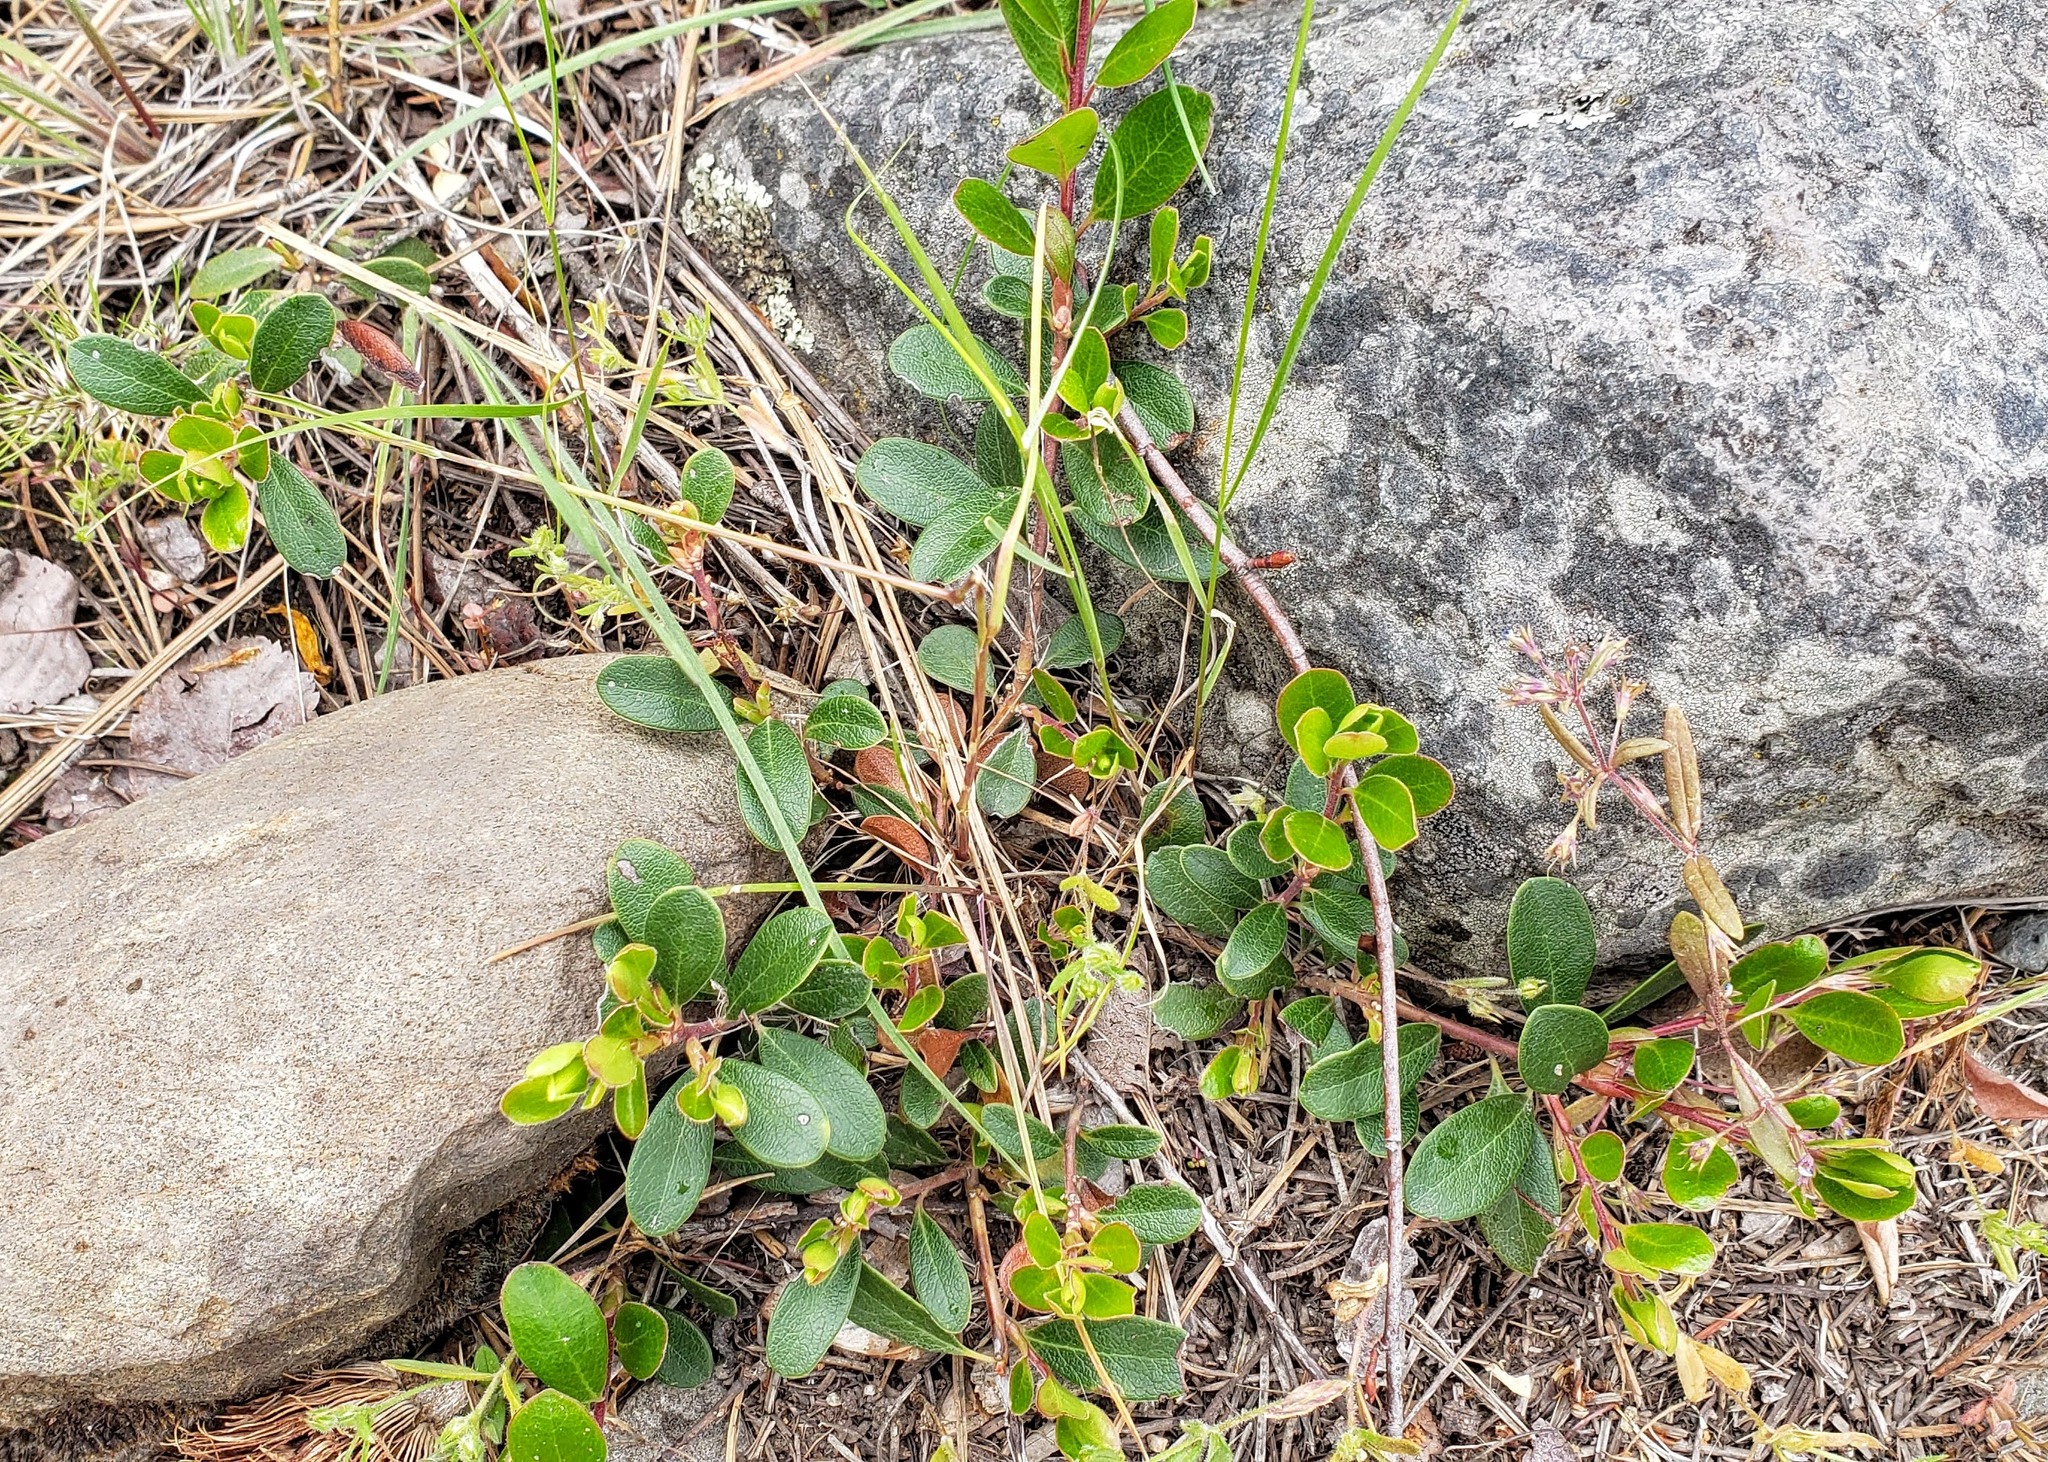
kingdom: Plantae
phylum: Tracheophyta
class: Magnoliopsida
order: Ericales
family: Ericaceae
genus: Arctostaphylos
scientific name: Arctostaphylos uva-ursi
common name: Bearberry
